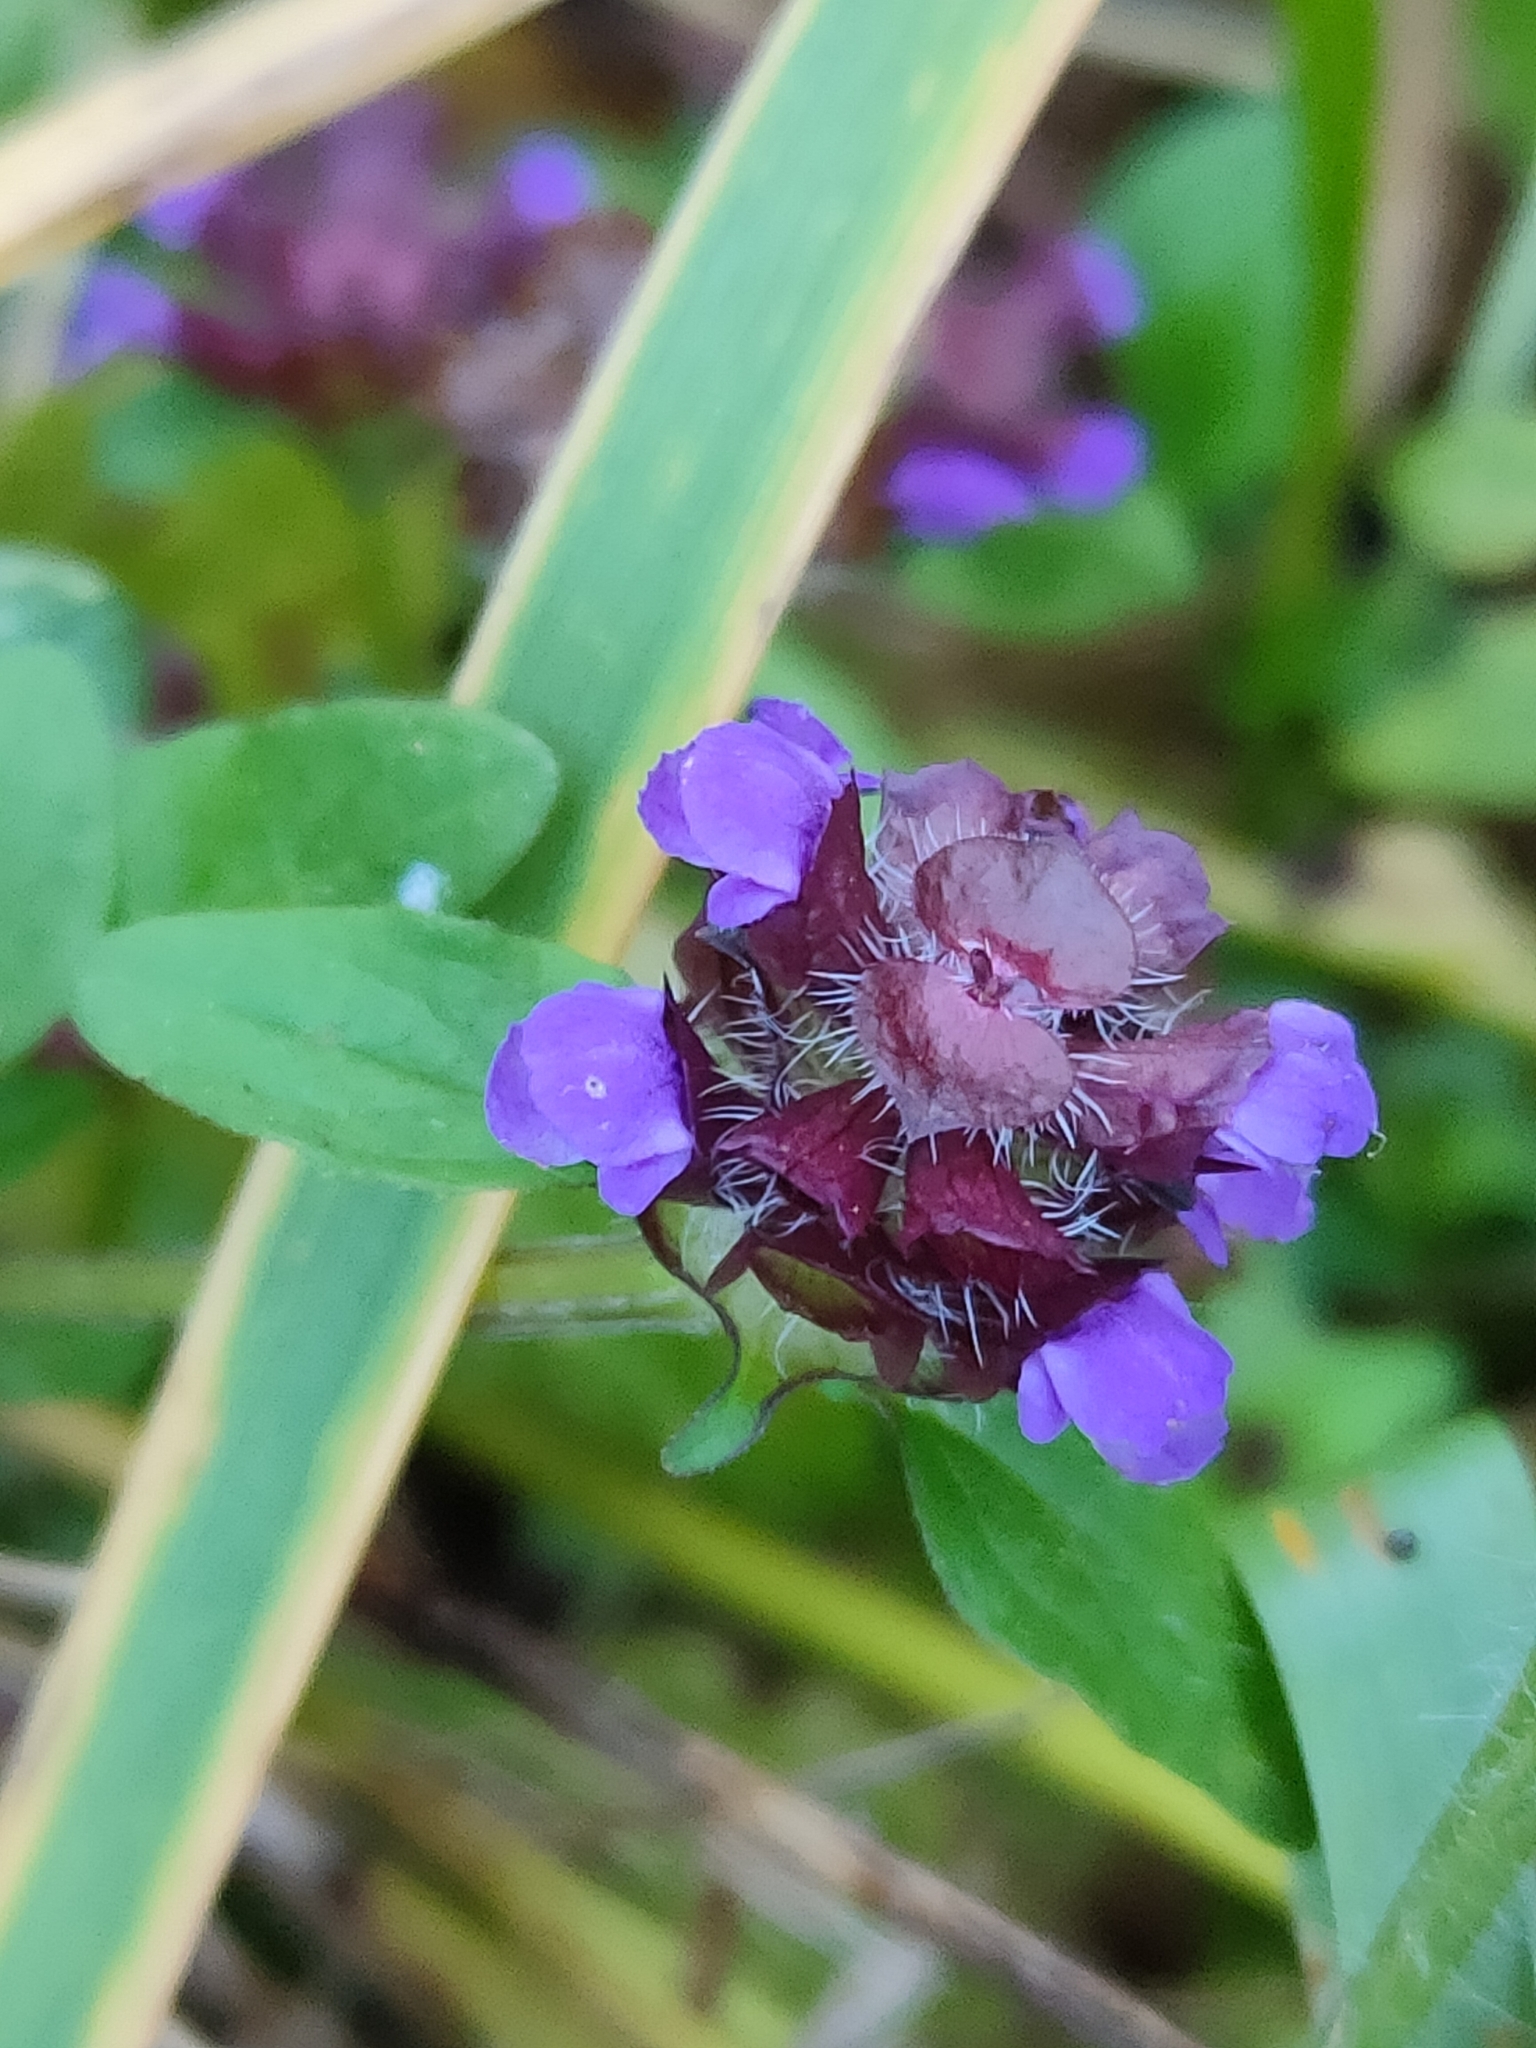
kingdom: Plantae
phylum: Tracheophyta
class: Magnoliopsida
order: Lamiales
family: Lamiaceae
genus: Prunella
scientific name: Prunella vulgaris
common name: Heal-all
